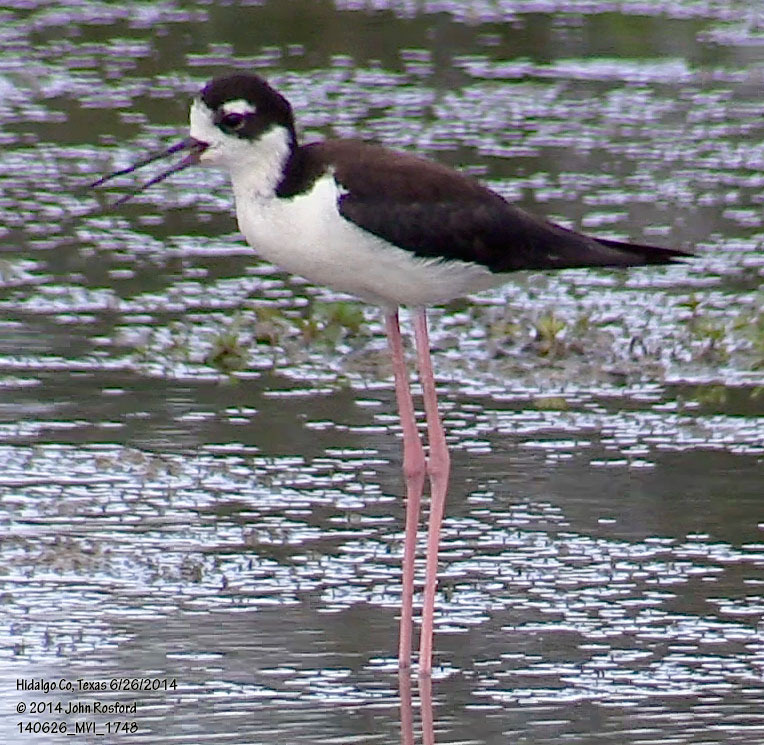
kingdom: Animalia
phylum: Chordata
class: Aves
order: Charadriiformes
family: Recurvirostridae
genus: Himantopus
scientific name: Himantopus mexicanus
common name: Black-necked stilt
